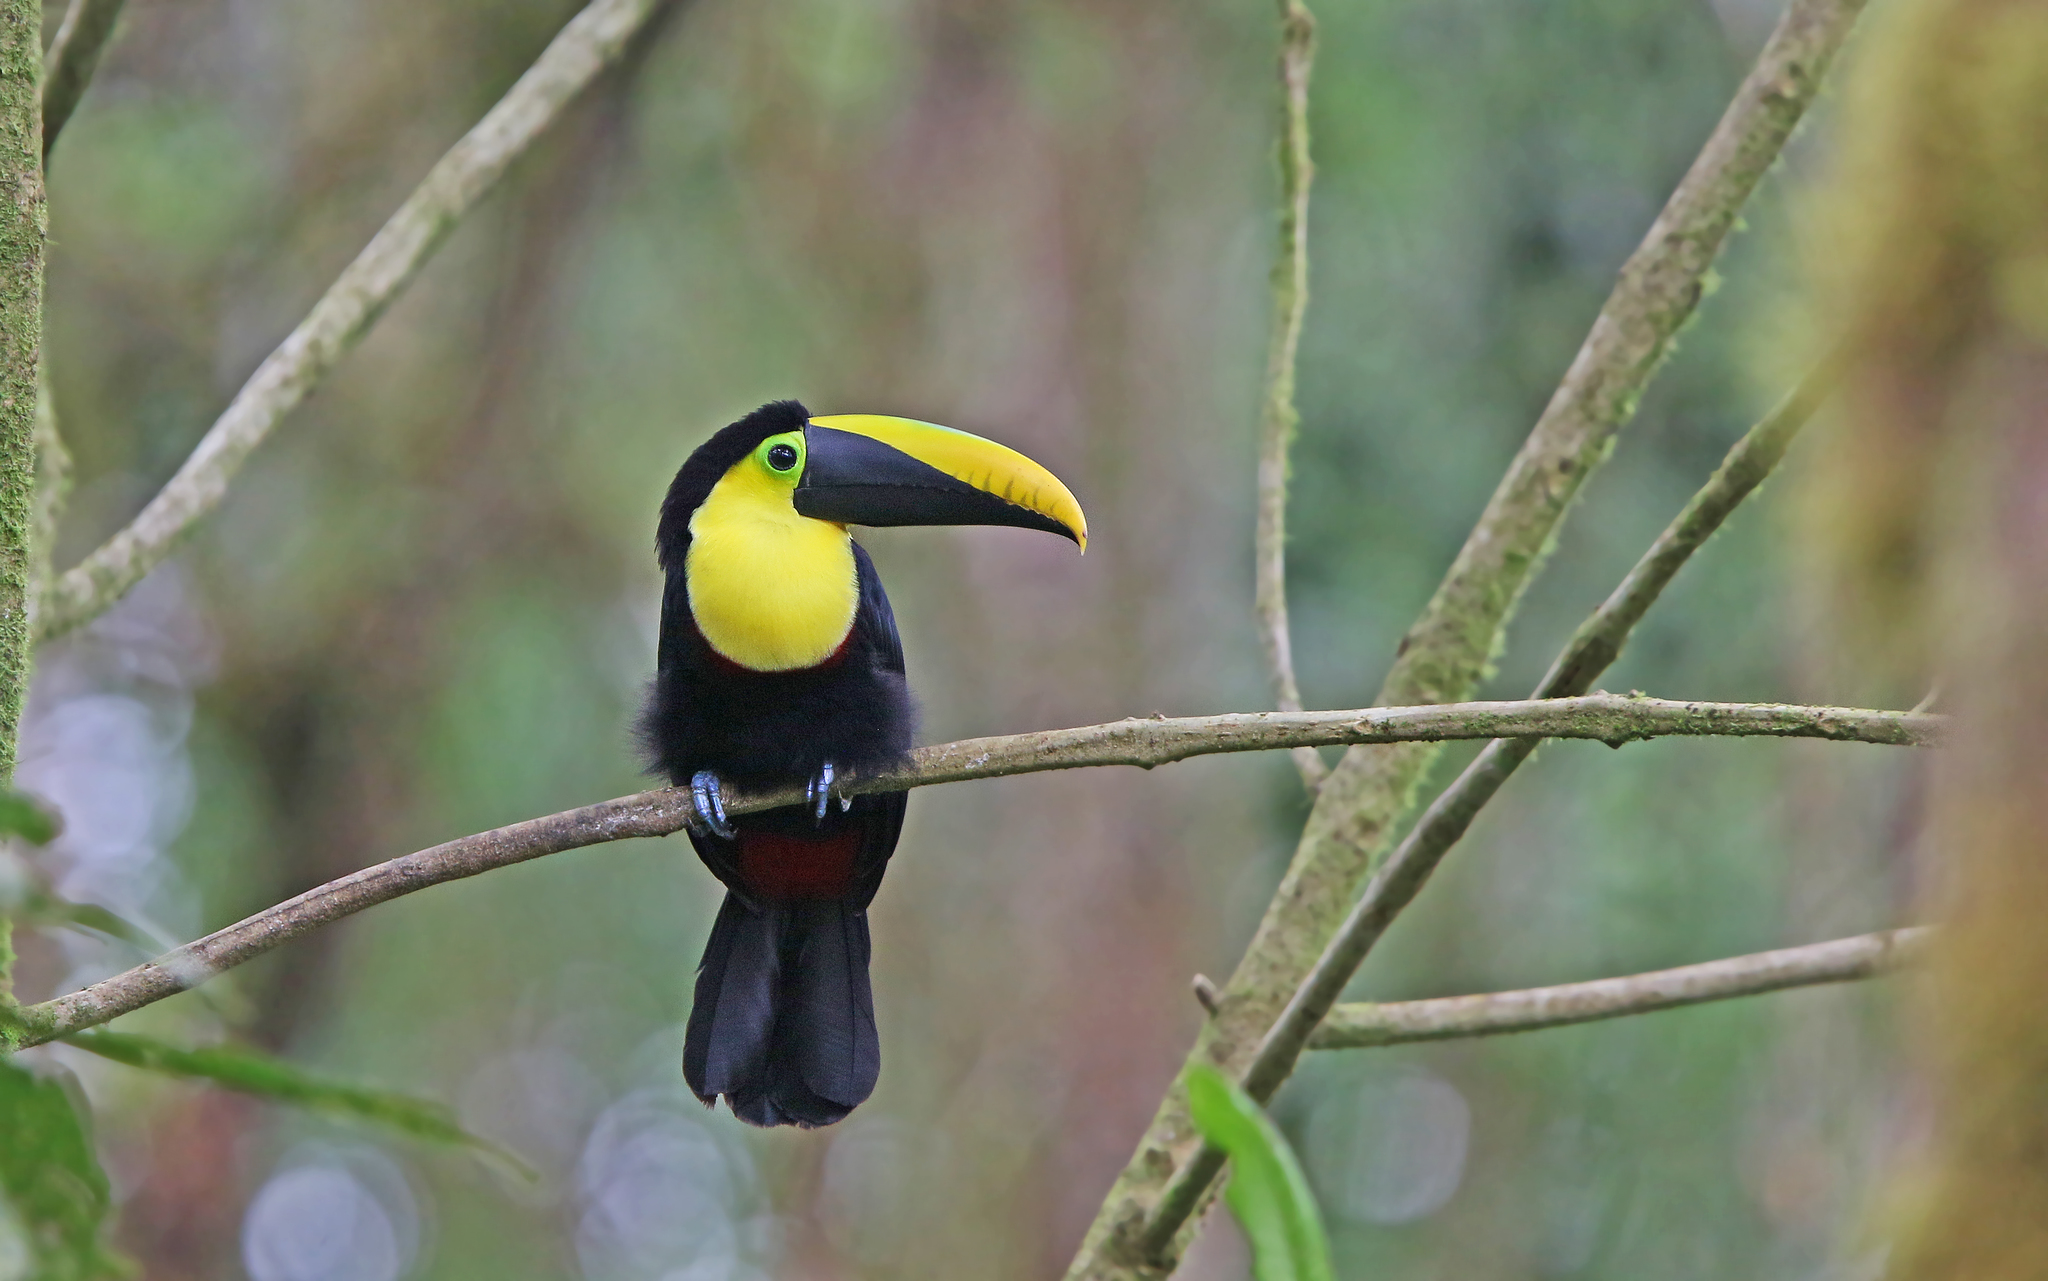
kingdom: Animalia
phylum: Chordata
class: Aves
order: Piciformes
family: Ramphastidae
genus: Ramphastos
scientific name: Ramphastos brevis
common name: Choco toucan
